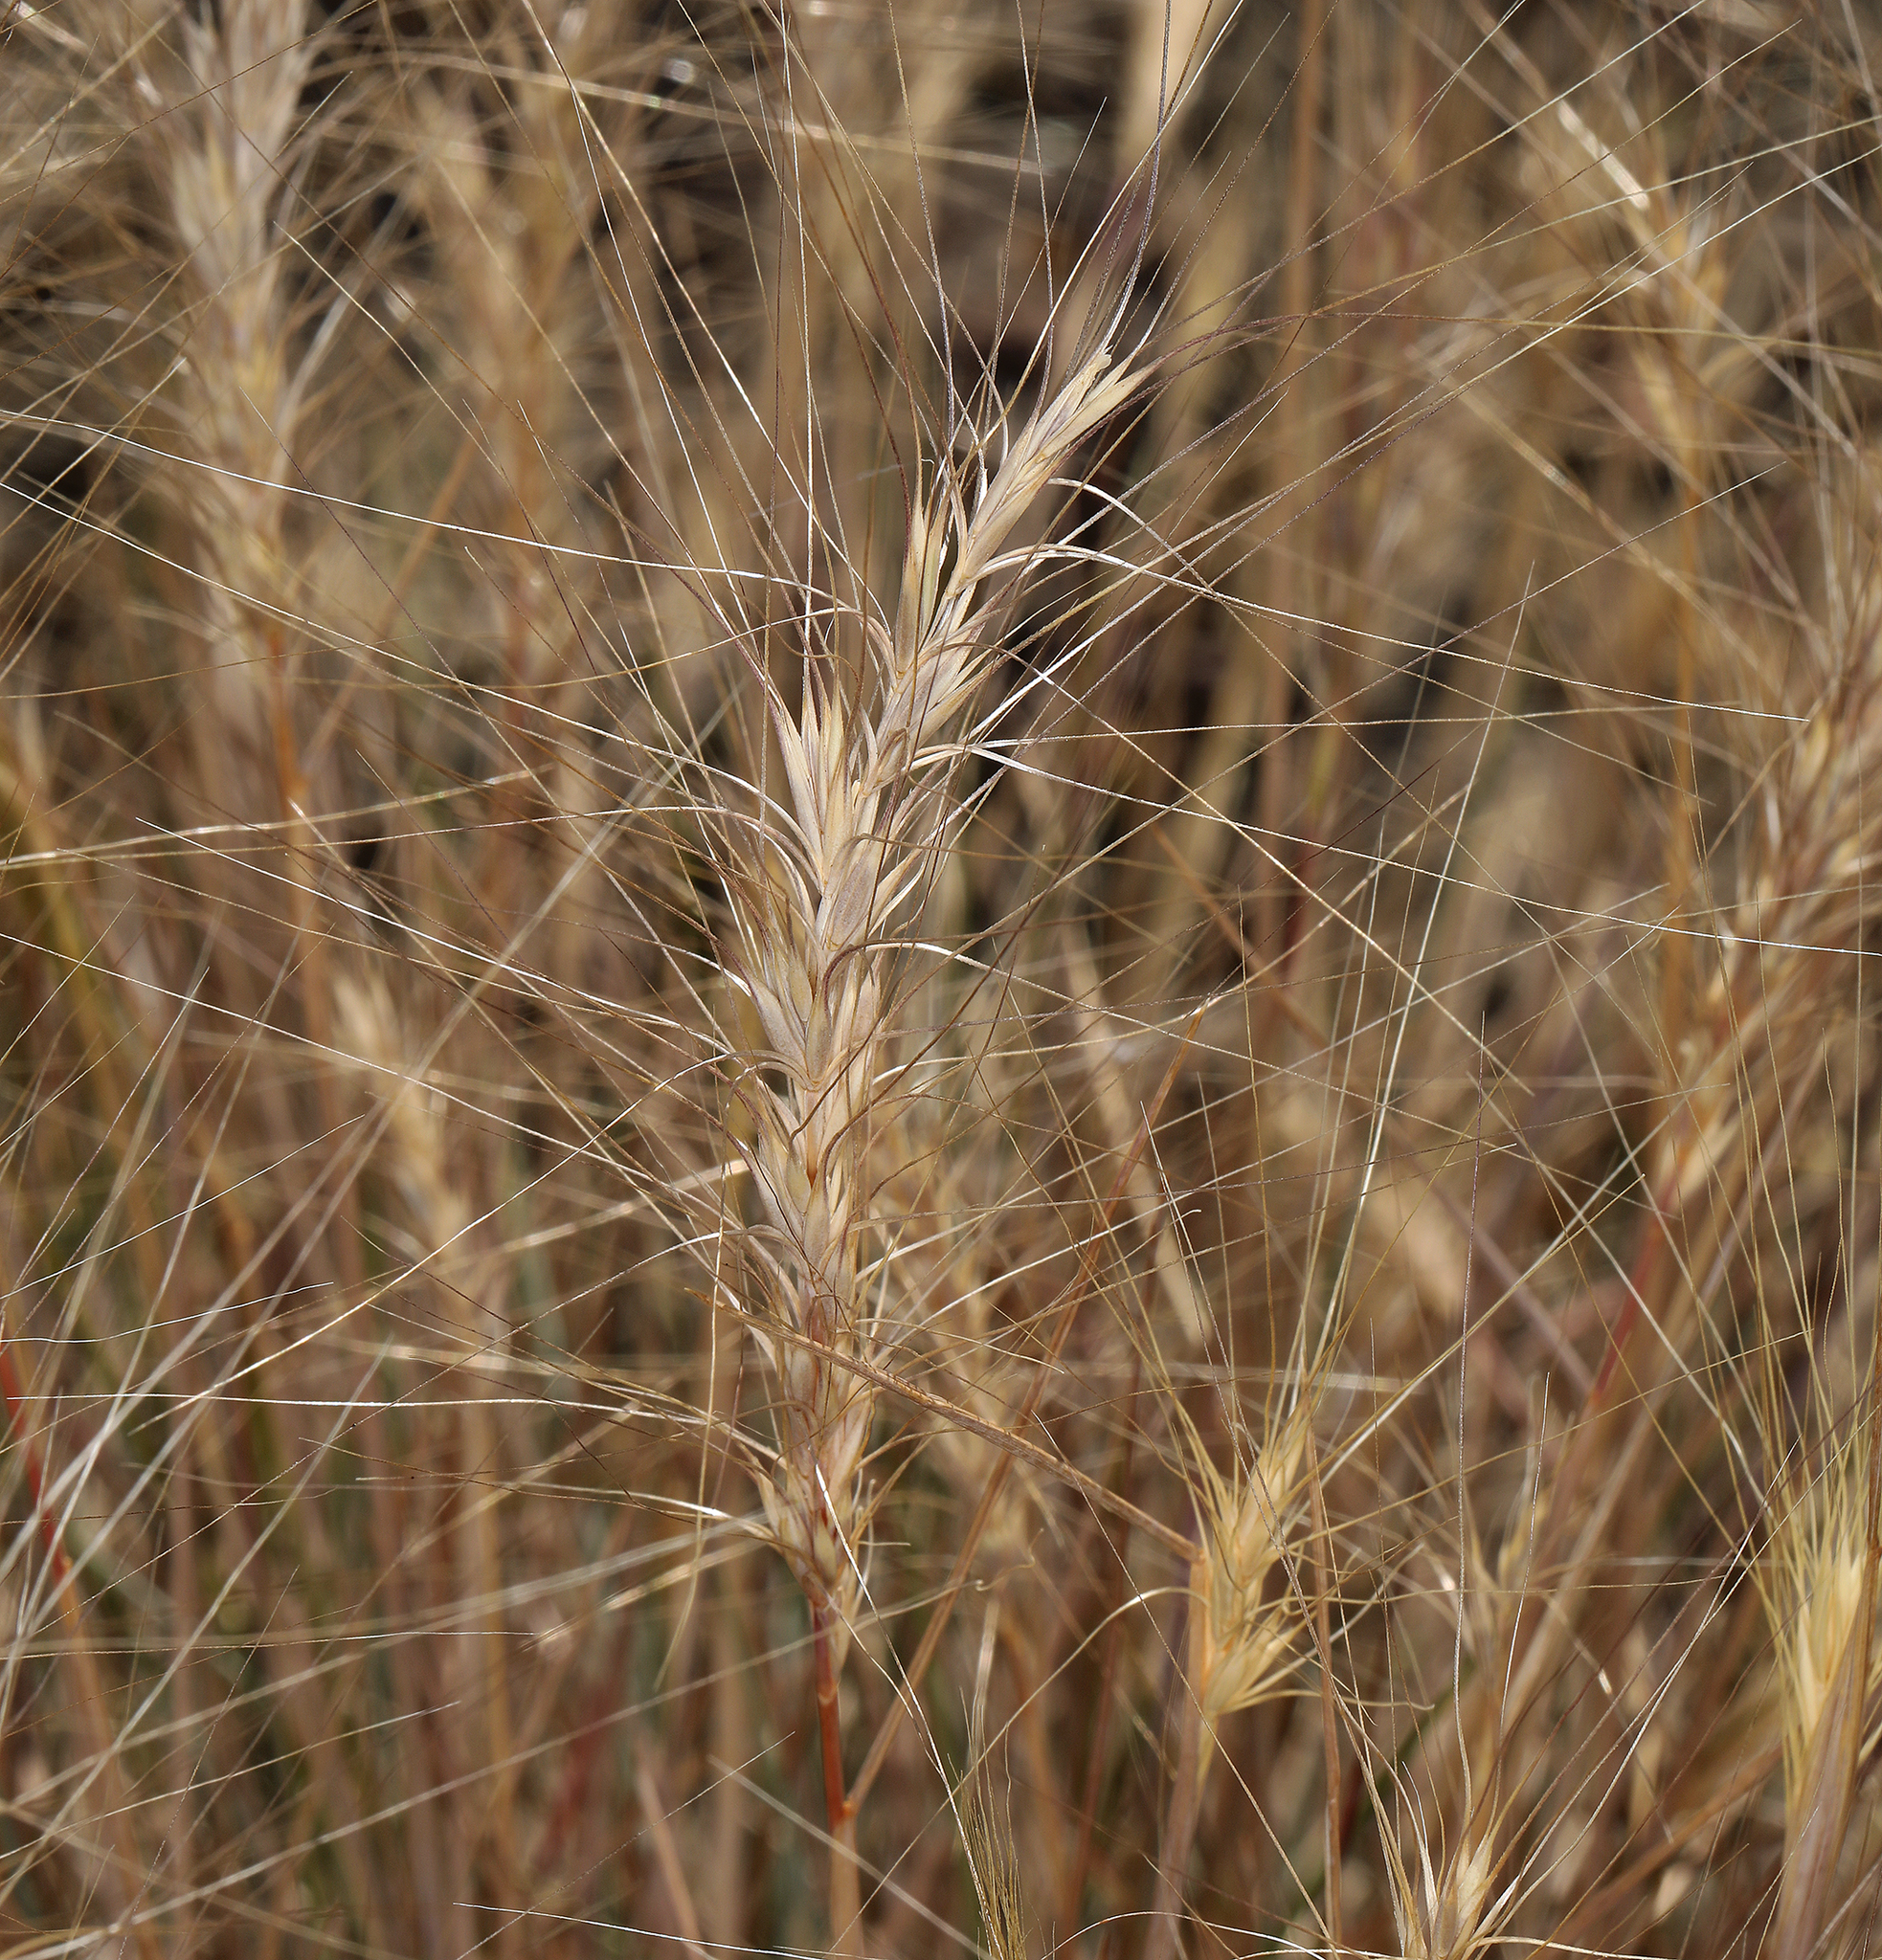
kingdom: Plantae
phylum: Tracheophyta
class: Liliopsida
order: Poales
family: Poaceae
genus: Elymus
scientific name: Elymus elymoides
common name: Bottlebrush squirreltail
